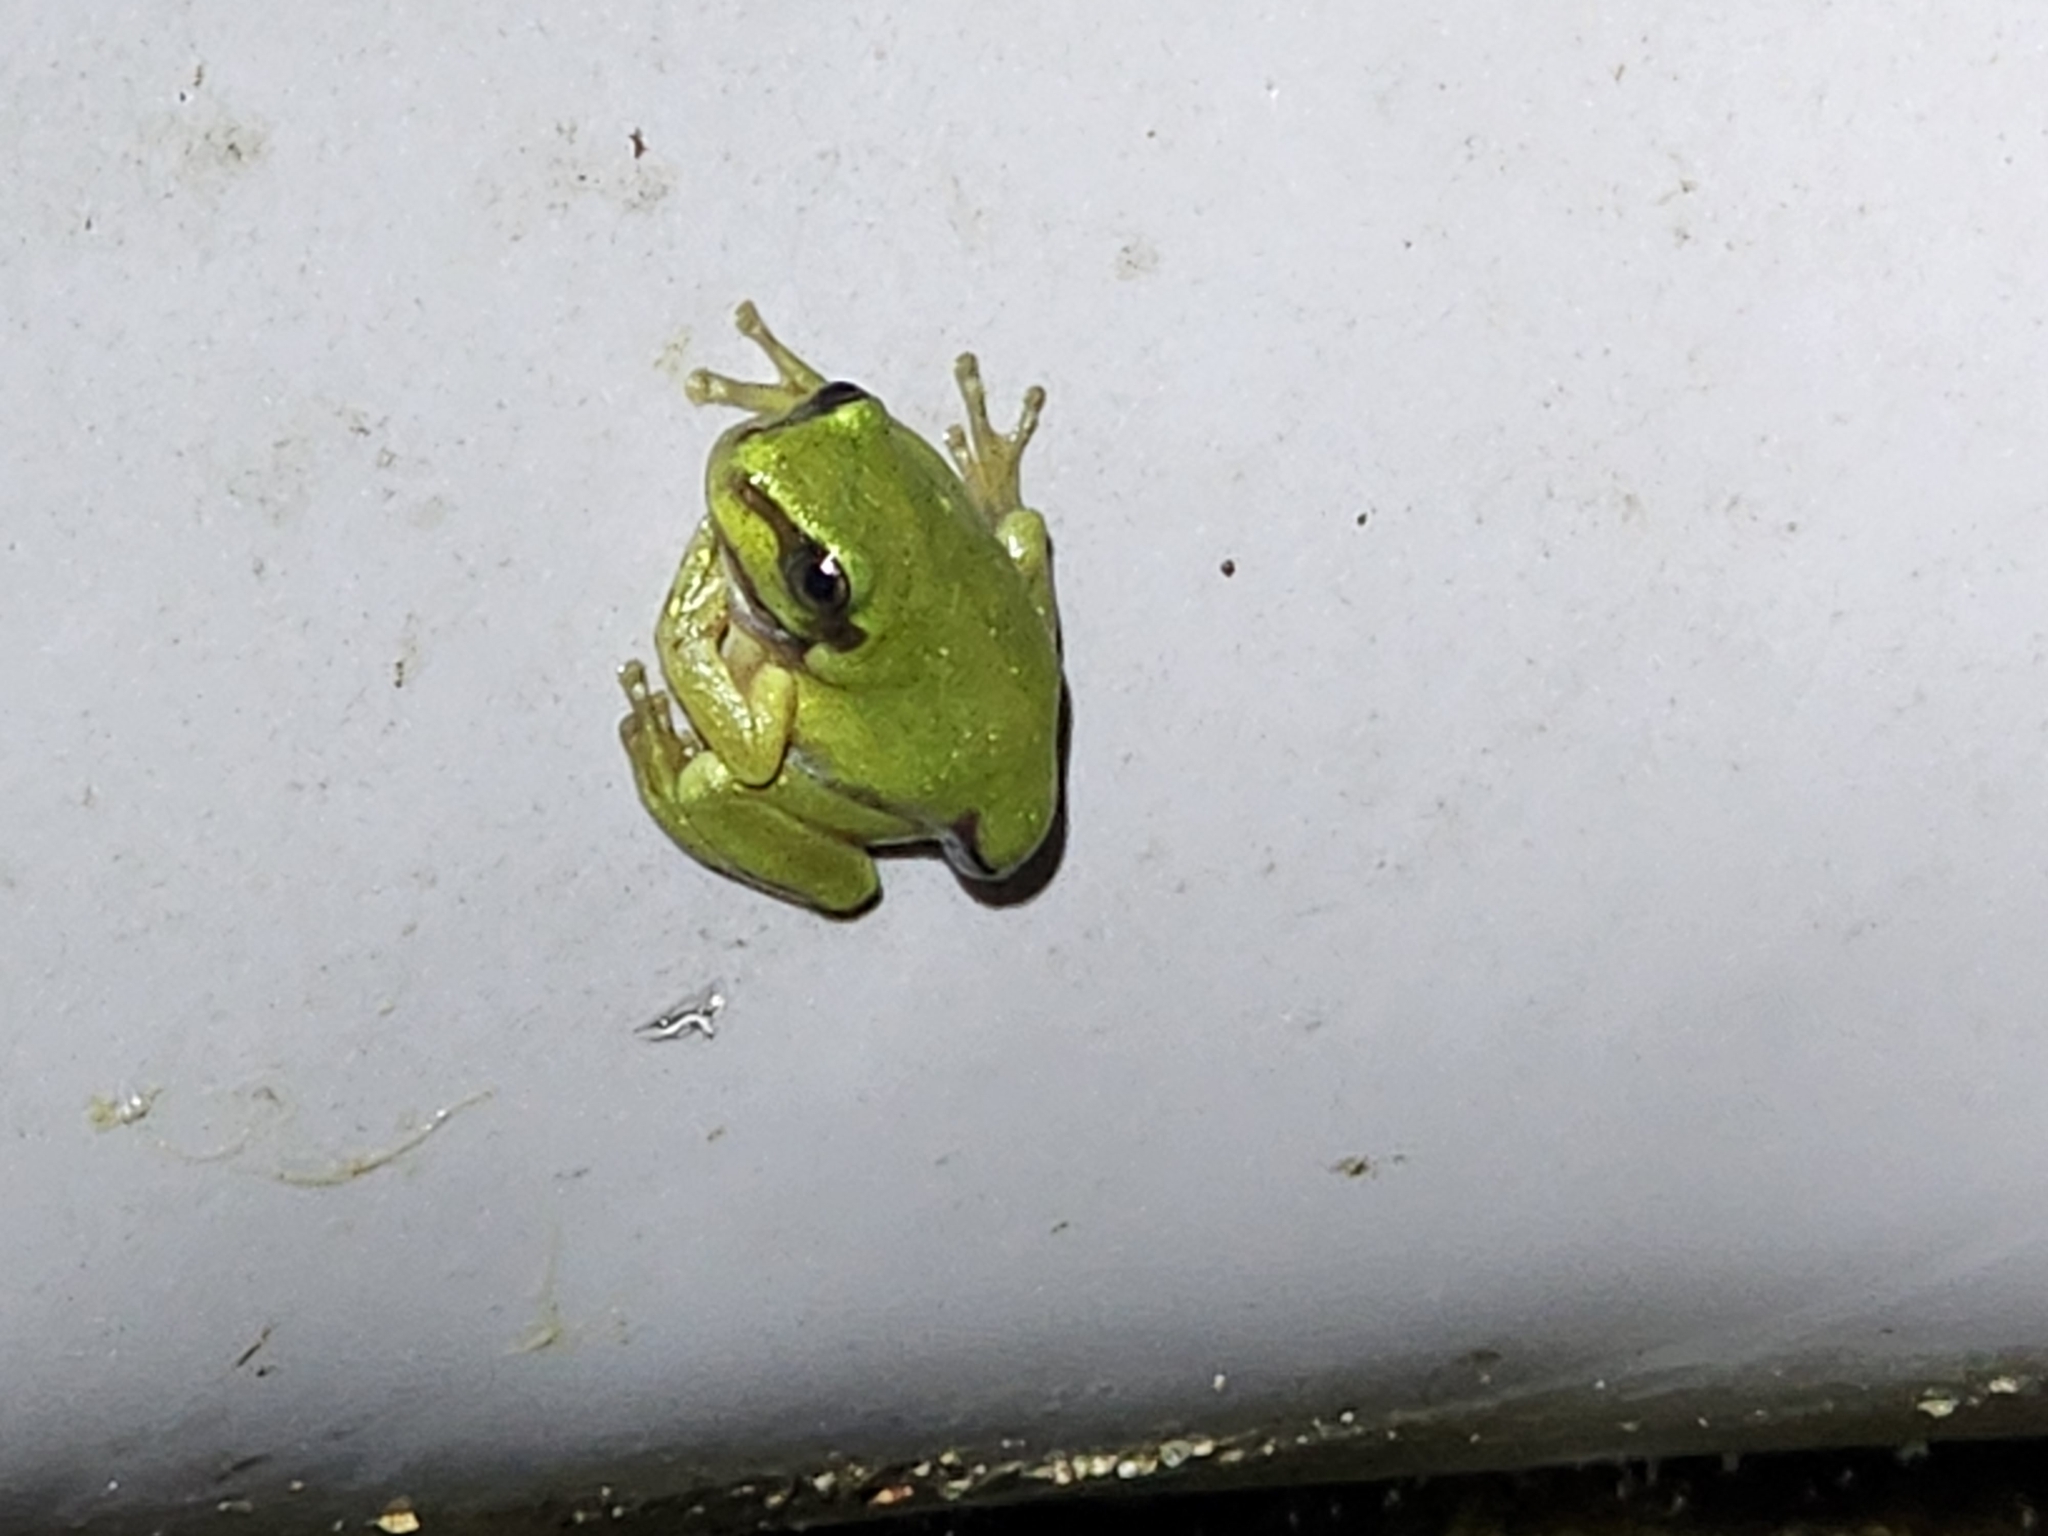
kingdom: Animalia
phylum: Chordata
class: Amphibia
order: Anura
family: Pelodryadidae
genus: Ranoidea
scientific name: Ranoidea caerulea
